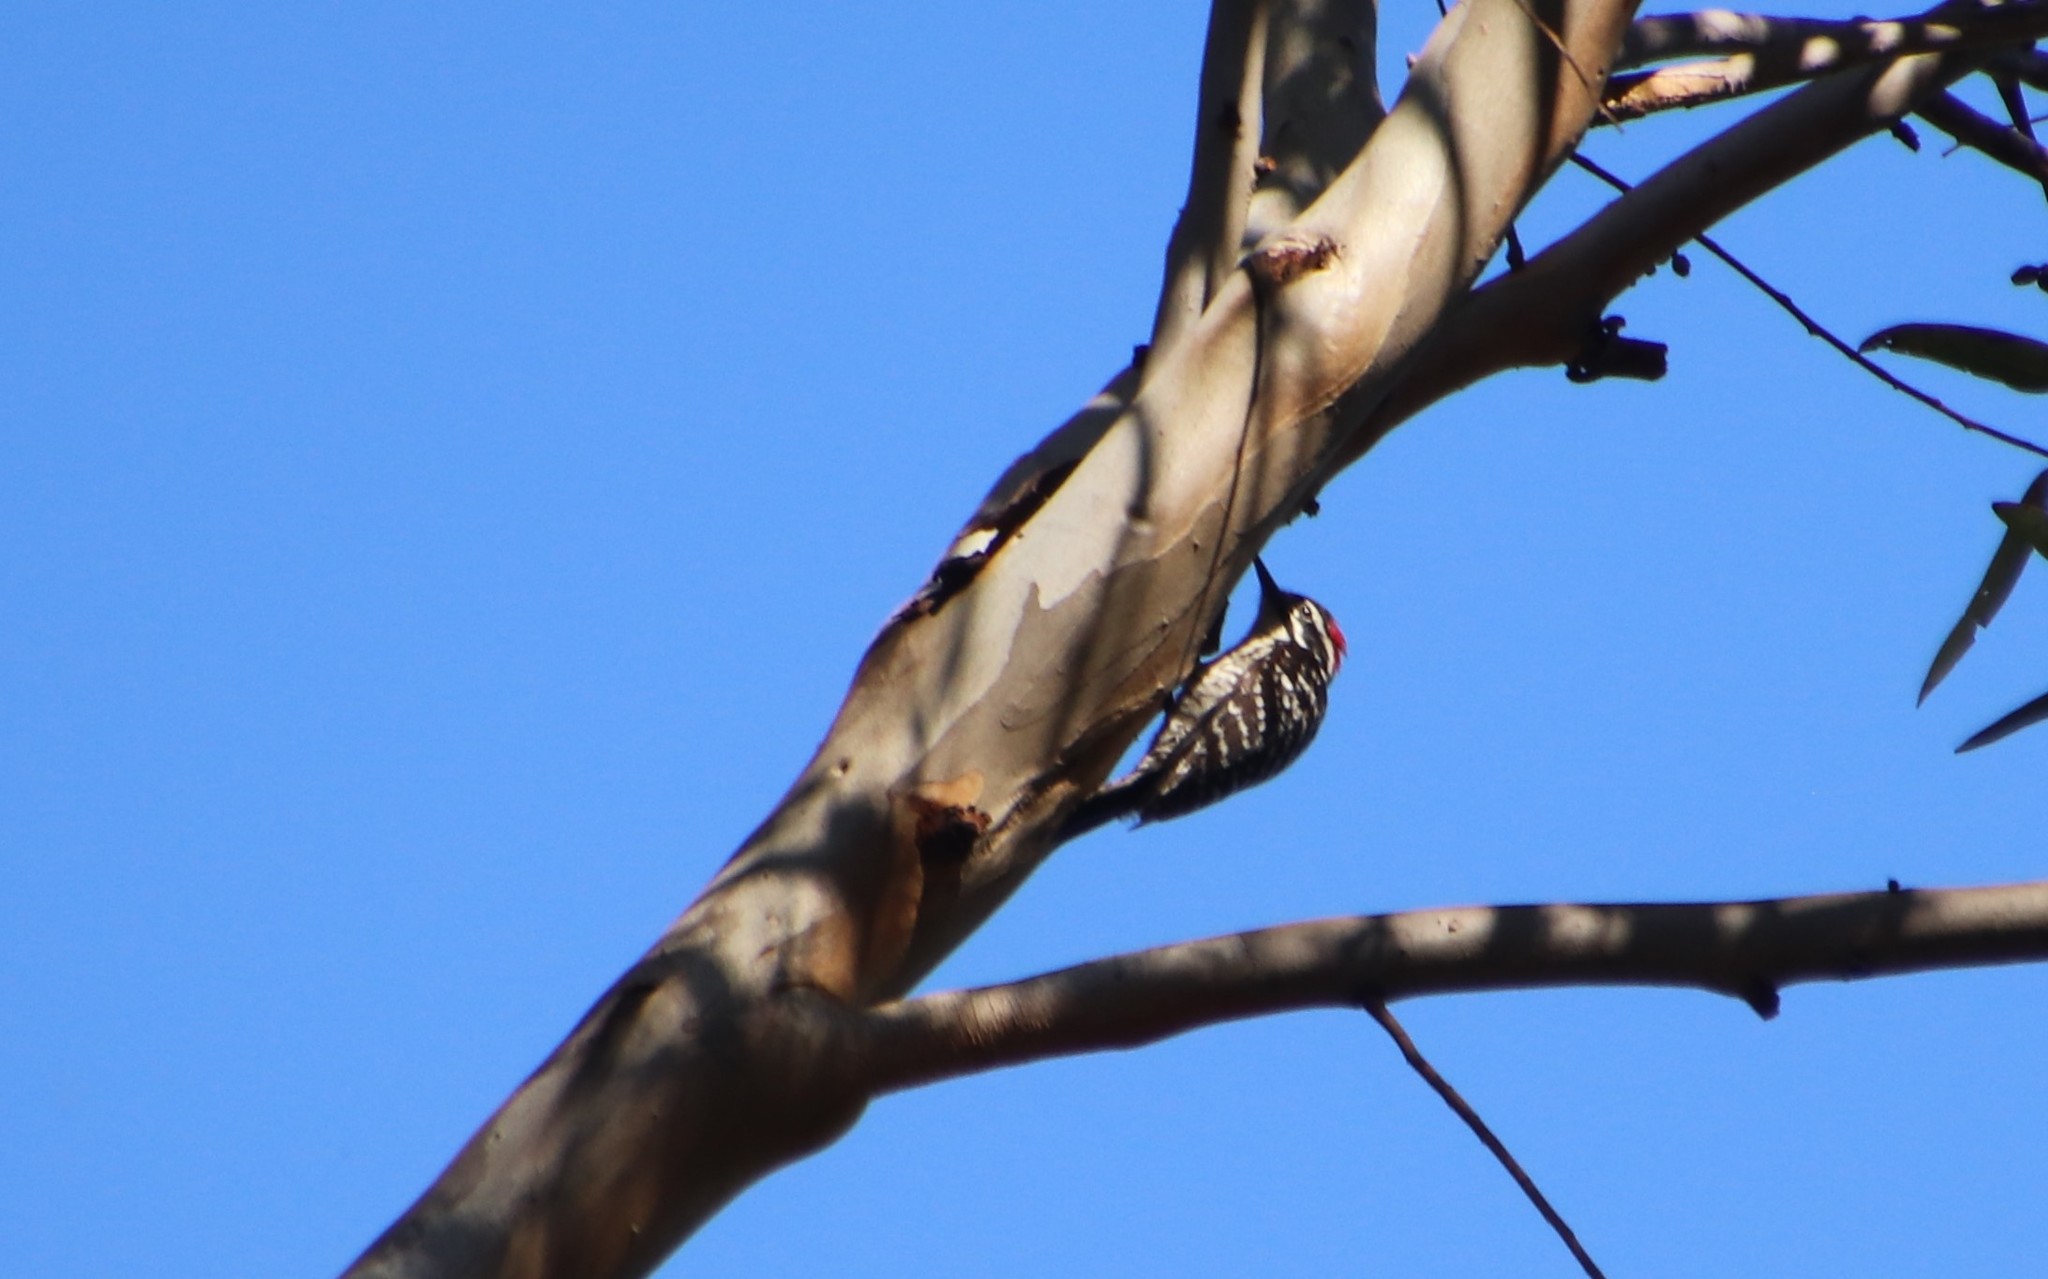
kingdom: Animalia
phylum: Chordata
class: Aves
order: Piciformes
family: Picidae
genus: Dryobates
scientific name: Dryobates nuttallii
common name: Nuttall's woodpecker
